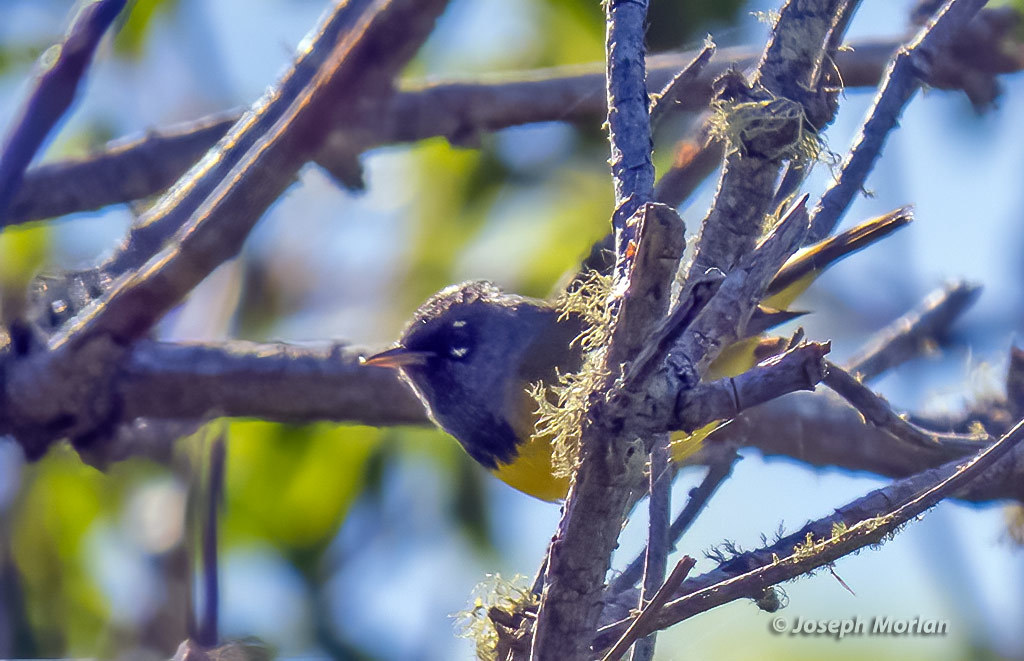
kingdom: Animalia
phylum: Chordata
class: Aves
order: Passeriformes
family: Parulidae
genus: Geothlypis
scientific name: Geothlypis tolmiei
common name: Macgillivray's warbler
